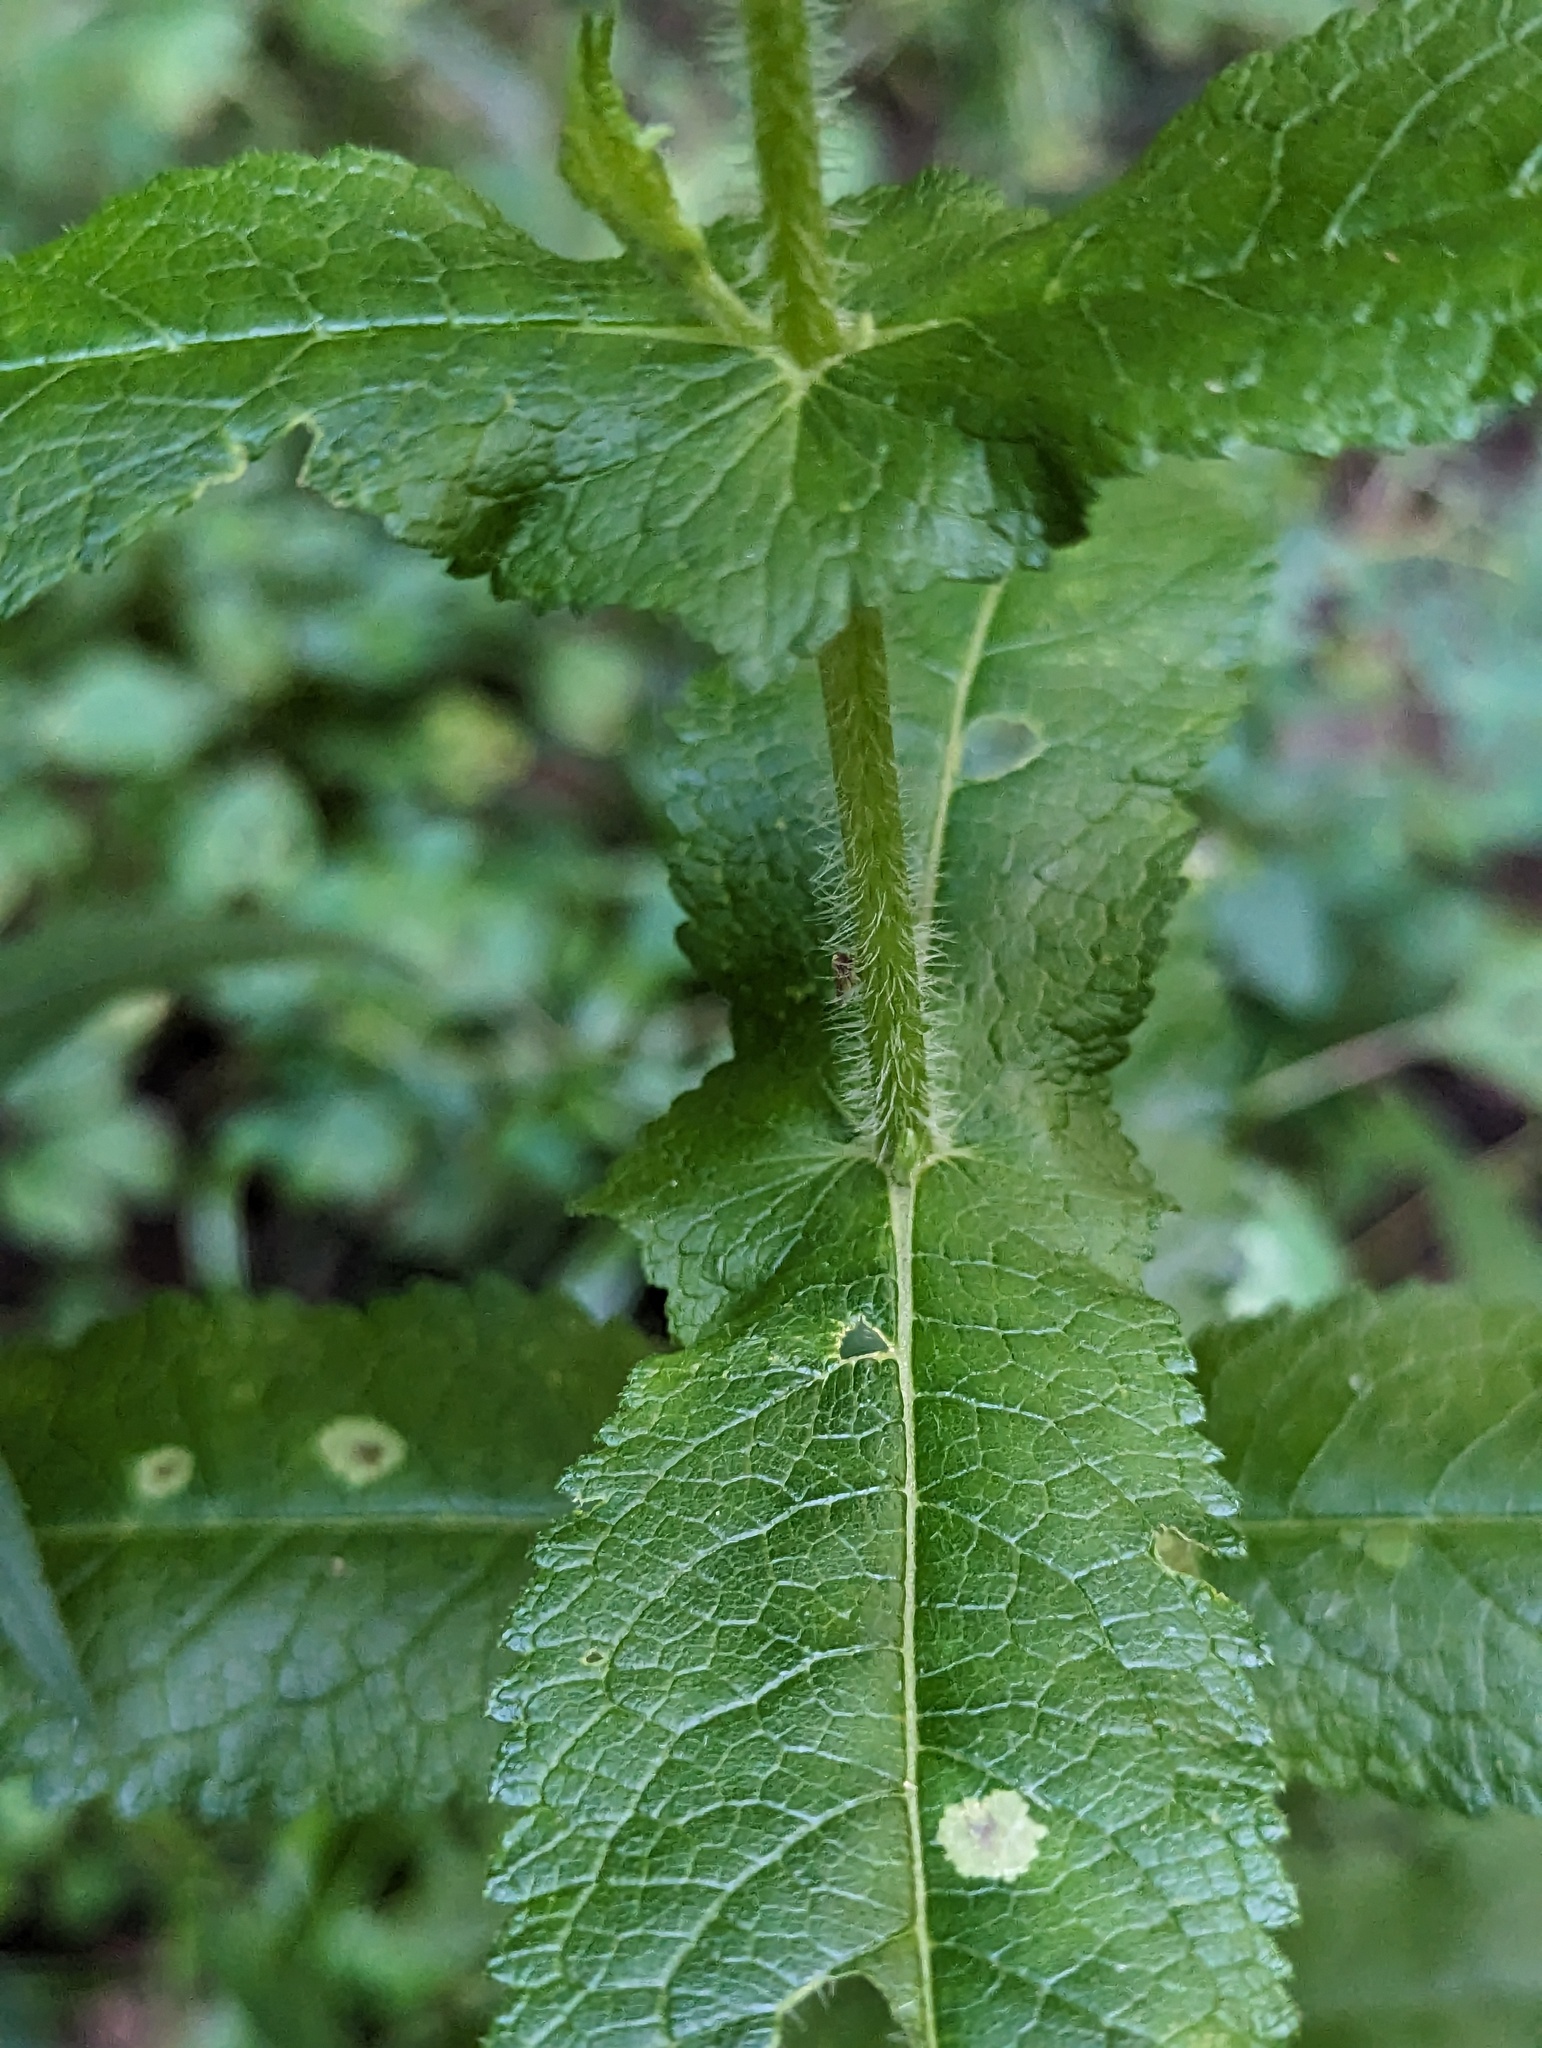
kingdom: Plantae
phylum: Tracheophyta
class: Magnoliopsida
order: Asterales
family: Asteraceae
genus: Eupatorium
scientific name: Eupatorium perfoliatum
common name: Boneset
